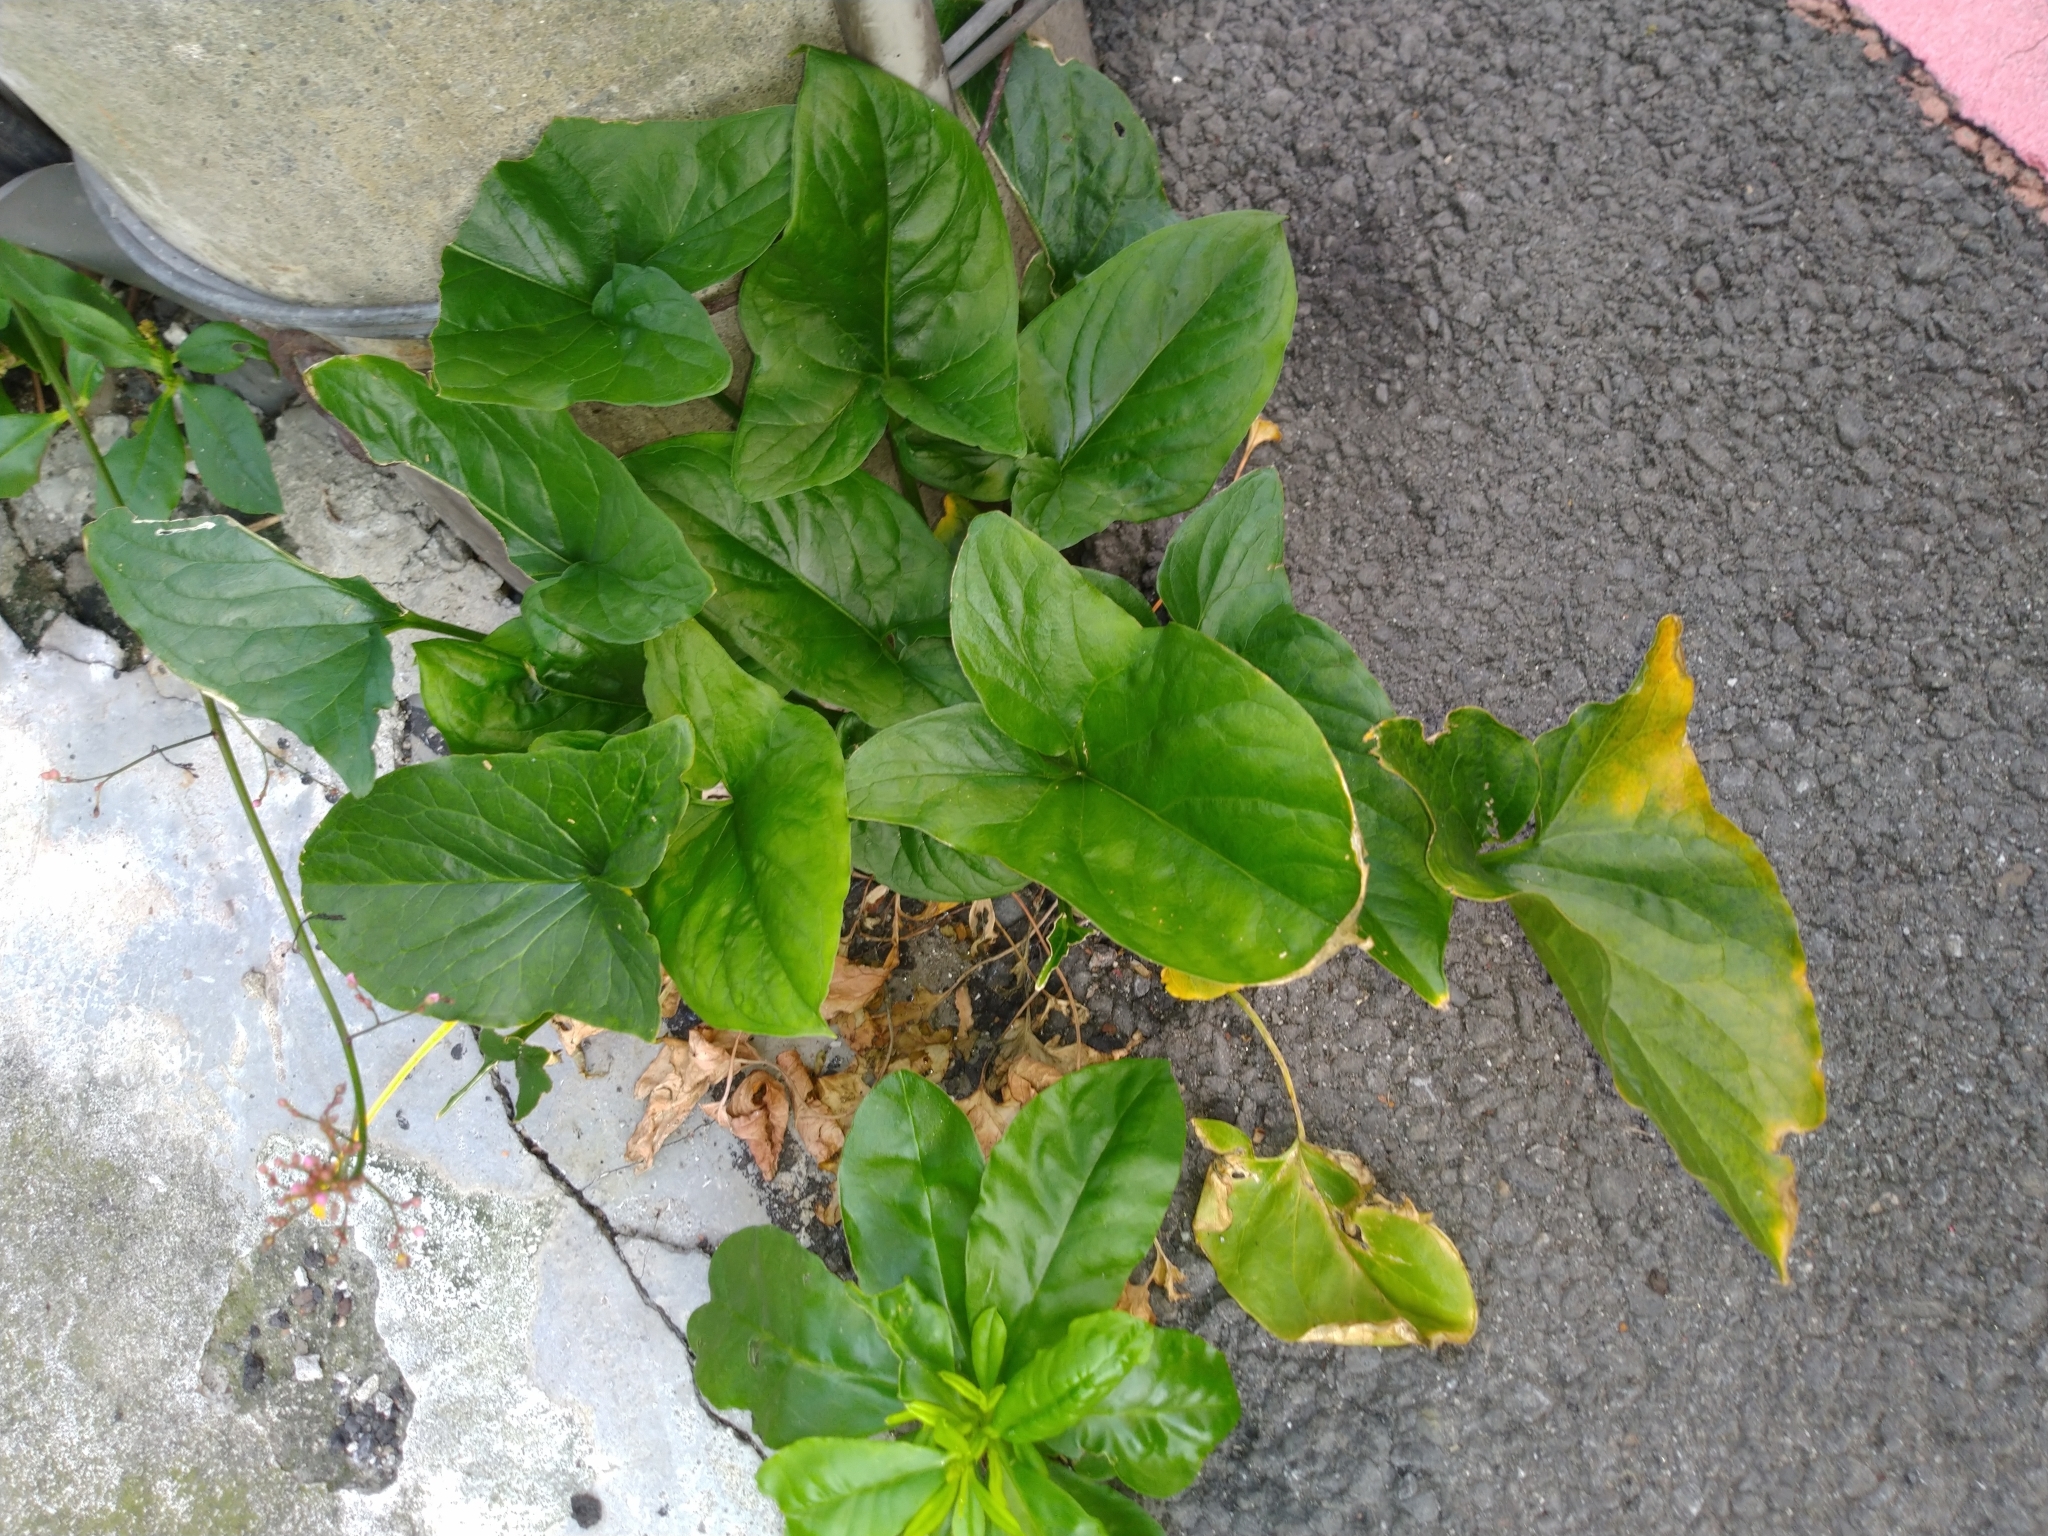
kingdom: Plantae
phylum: Tracheophyta
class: Liliopsida
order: Alismatales
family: Araceae
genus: Typhonium
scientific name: Typhonium blumei
